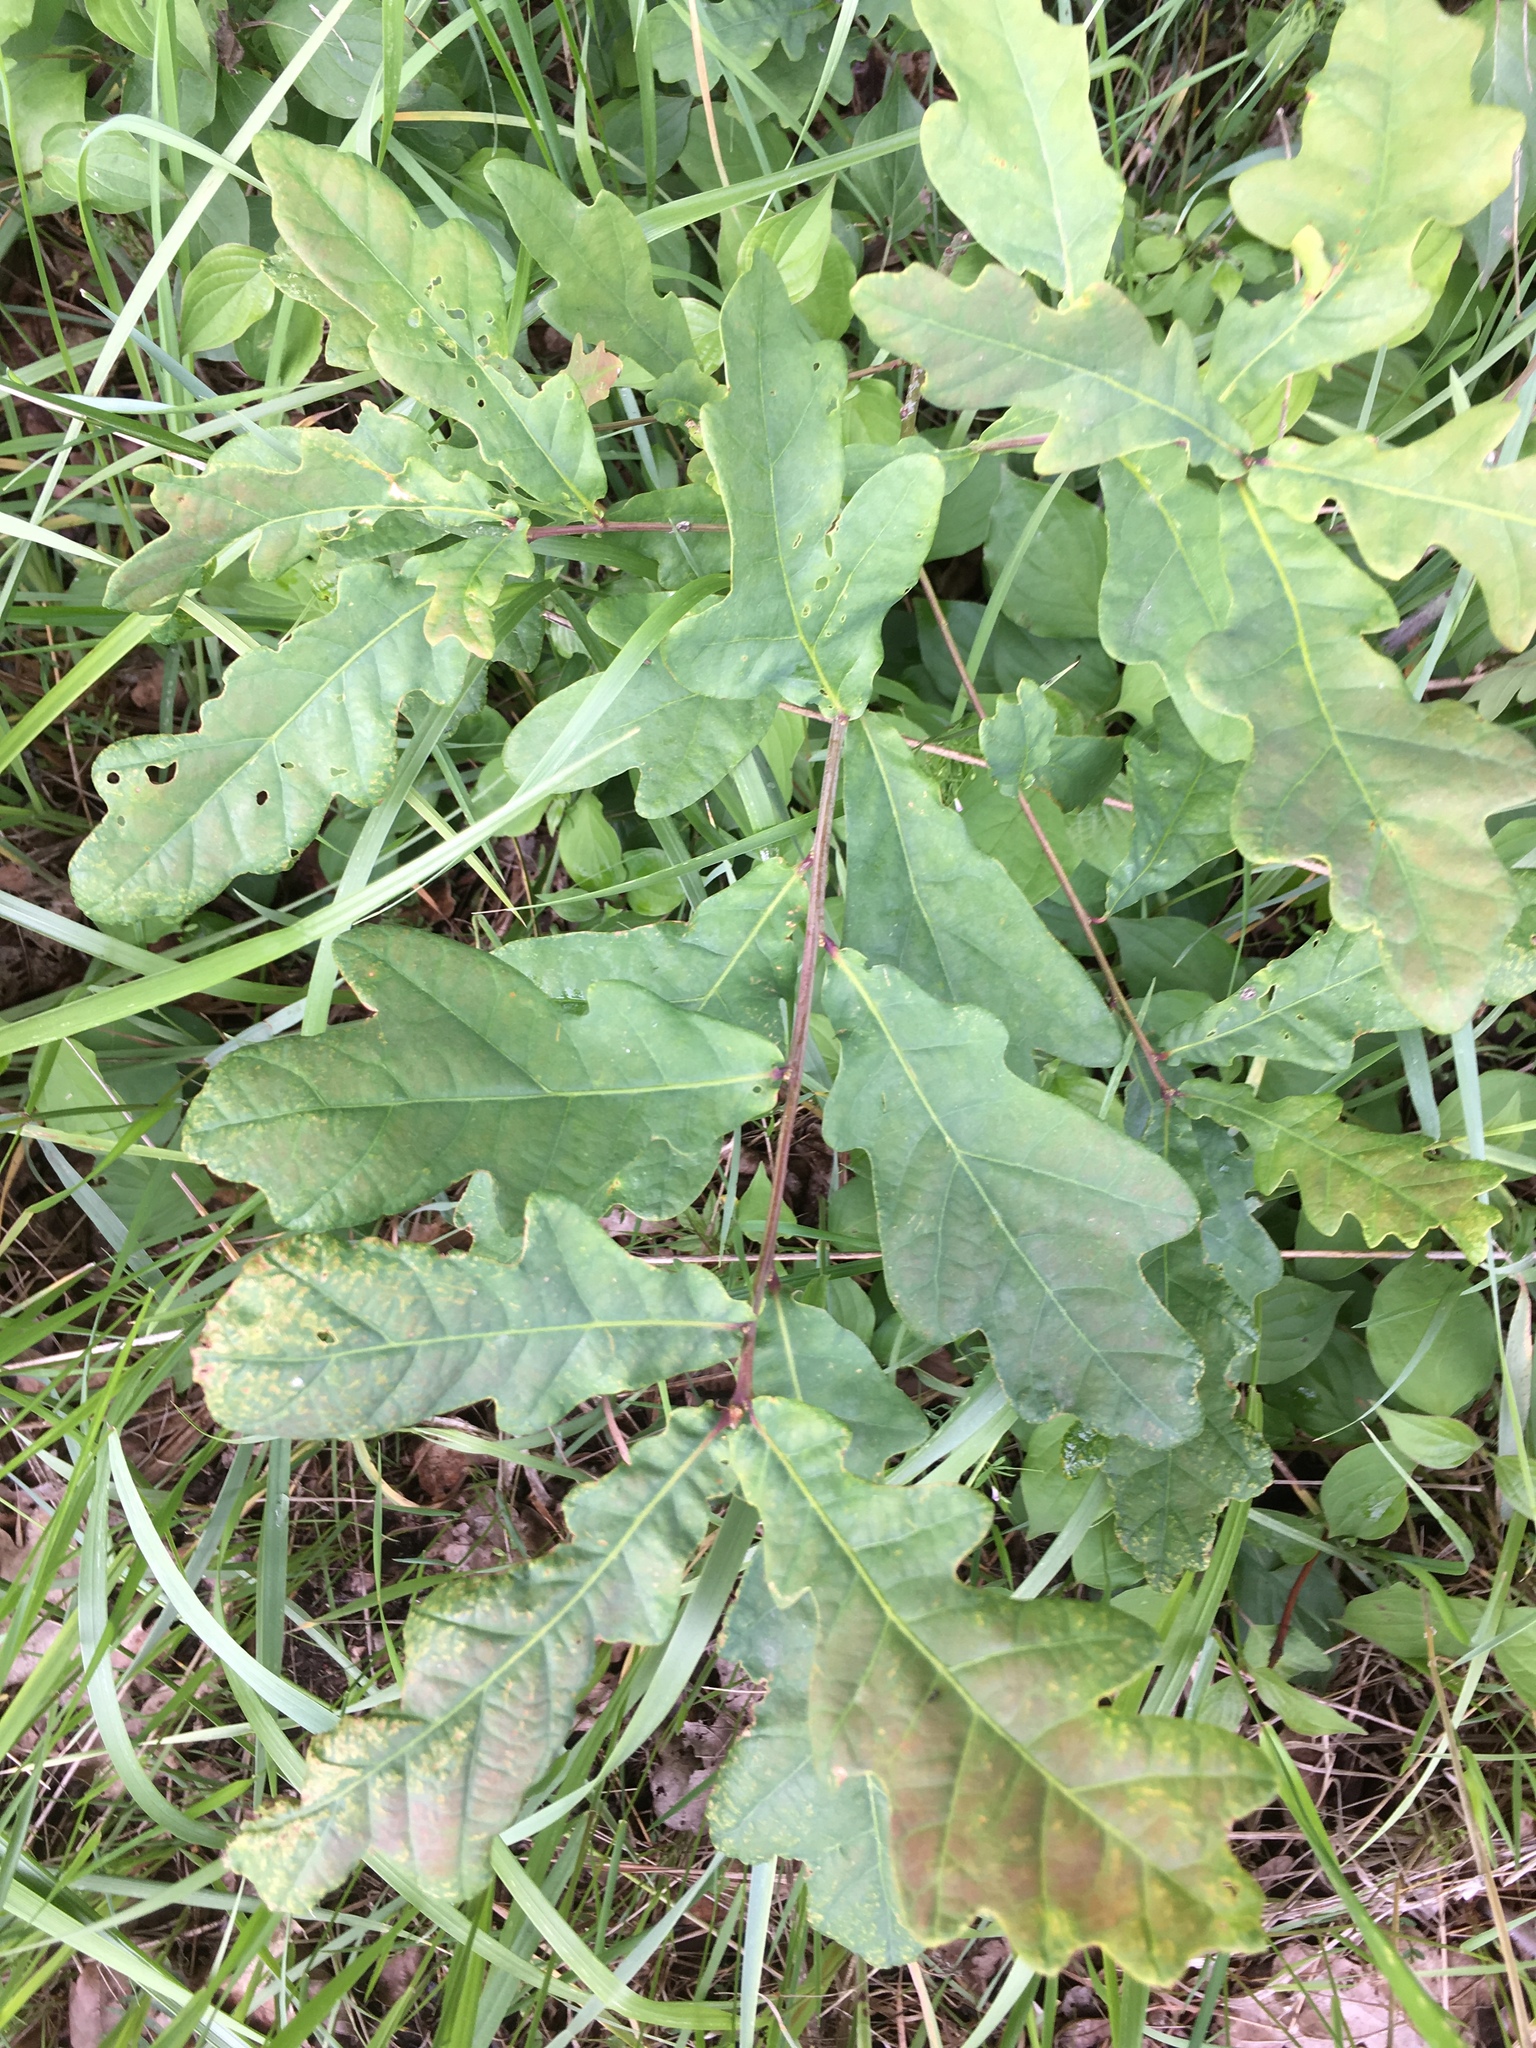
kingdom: Plantae
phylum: Tracheophyta
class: Magnoliopsida
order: Fagales
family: Fagaceae
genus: Quercus
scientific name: Quercus robur
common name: Pedunculate oak
